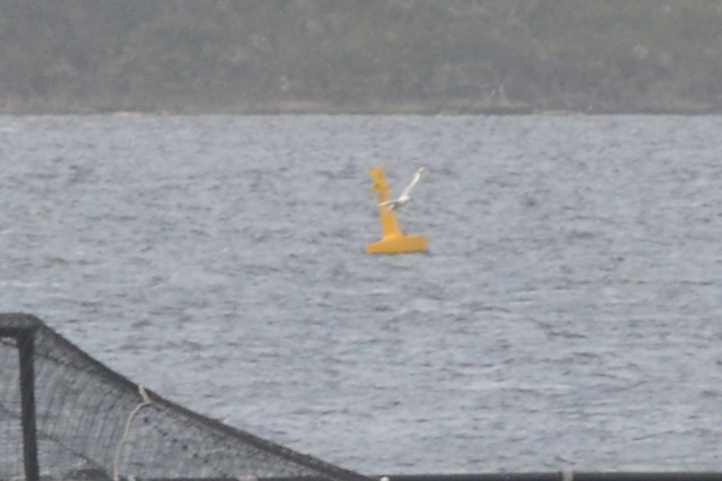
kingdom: Animalia
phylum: Chordata
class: Aves
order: Charadriiformes
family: Laridae
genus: Chroicocephalus
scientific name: Chroicocephalus novaehollandiae
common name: Silver gull
